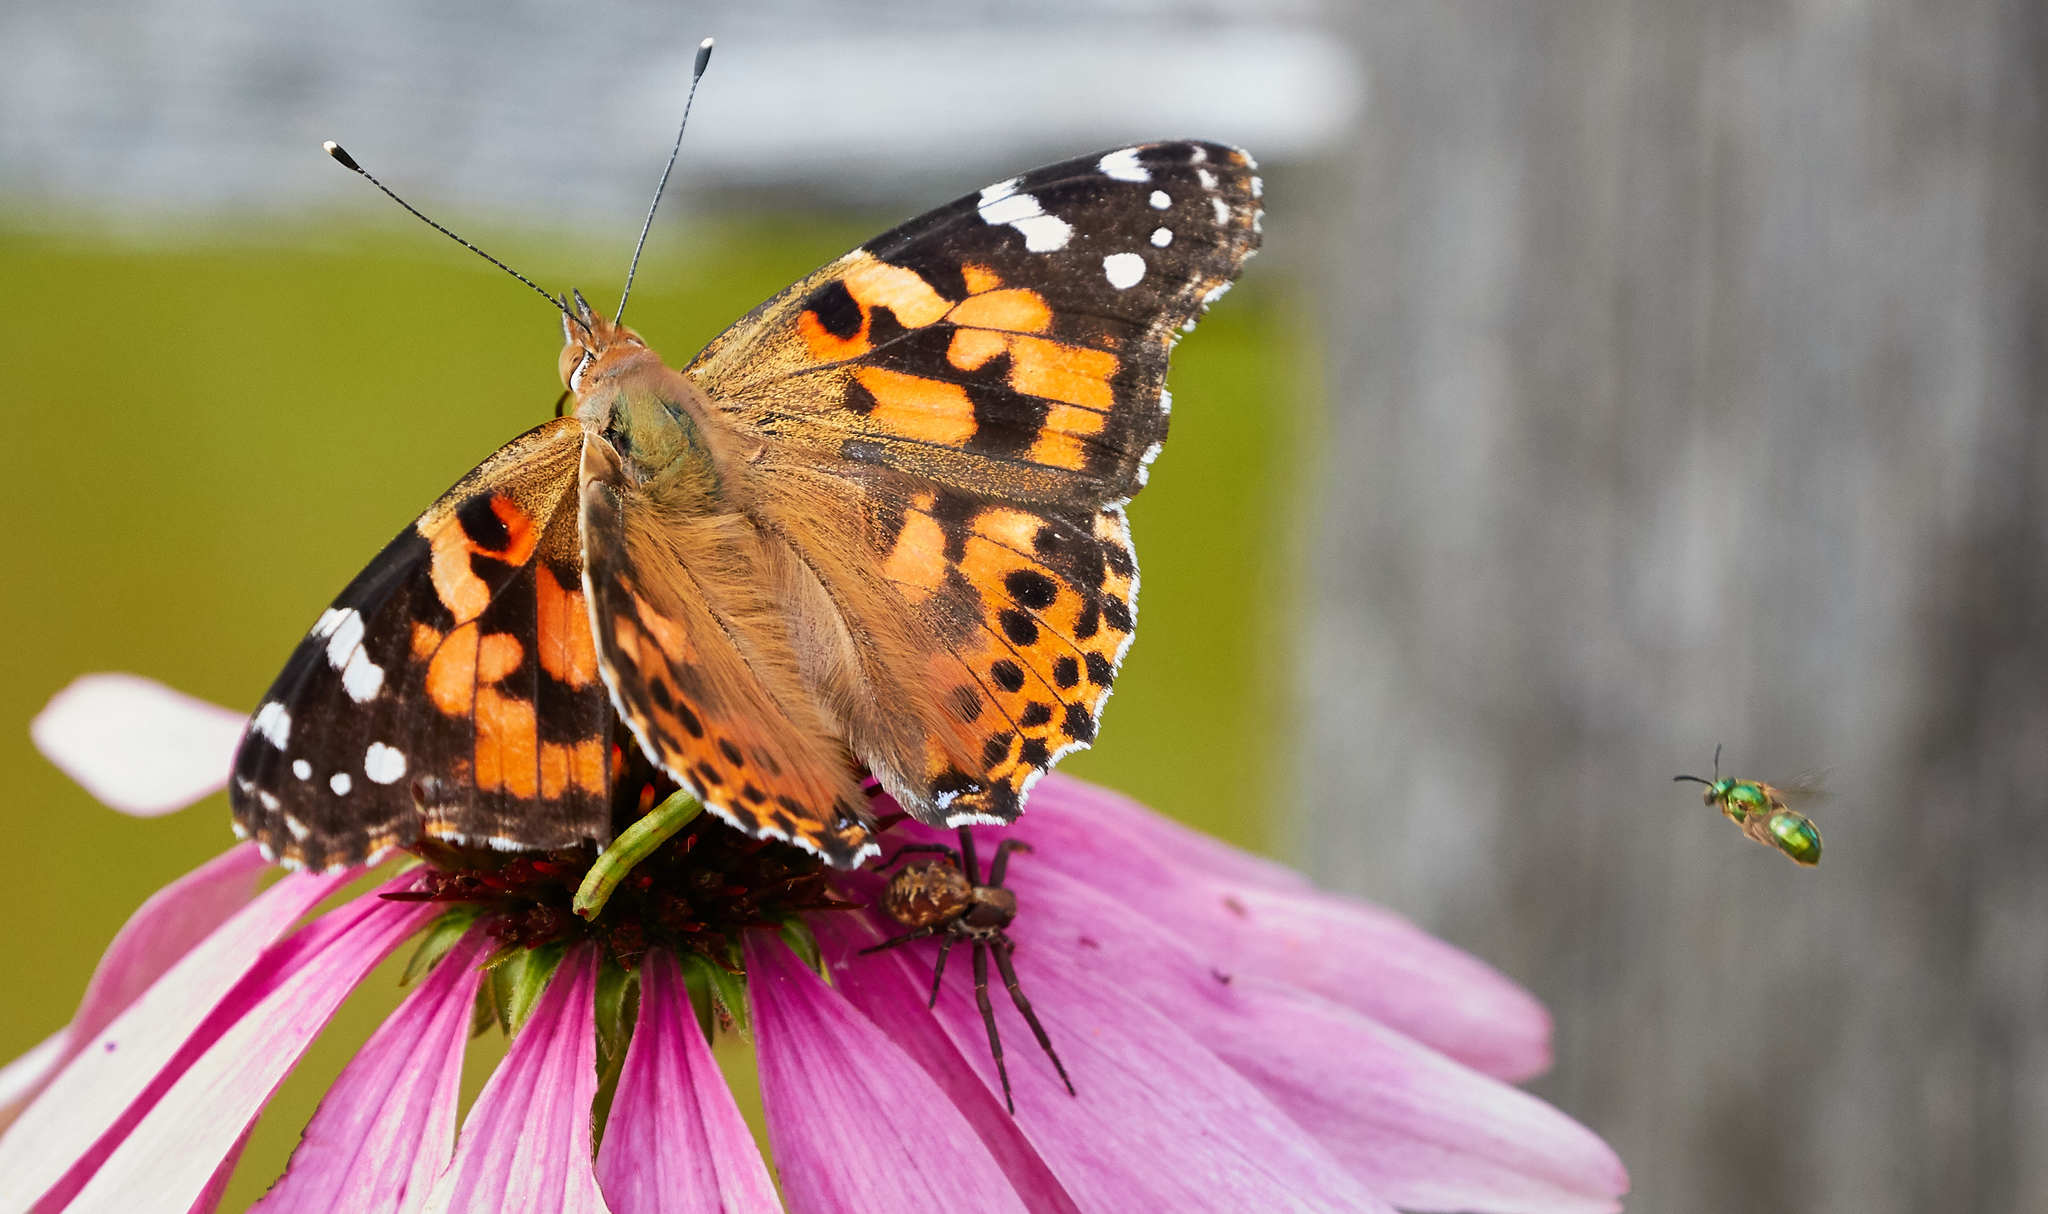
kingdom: Animalia
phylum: Arthropoda
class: Insecta
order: Lepidoptera
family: Nymphalidae
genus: Vanessa
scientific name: Vanessa cardui
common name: Painted lady
